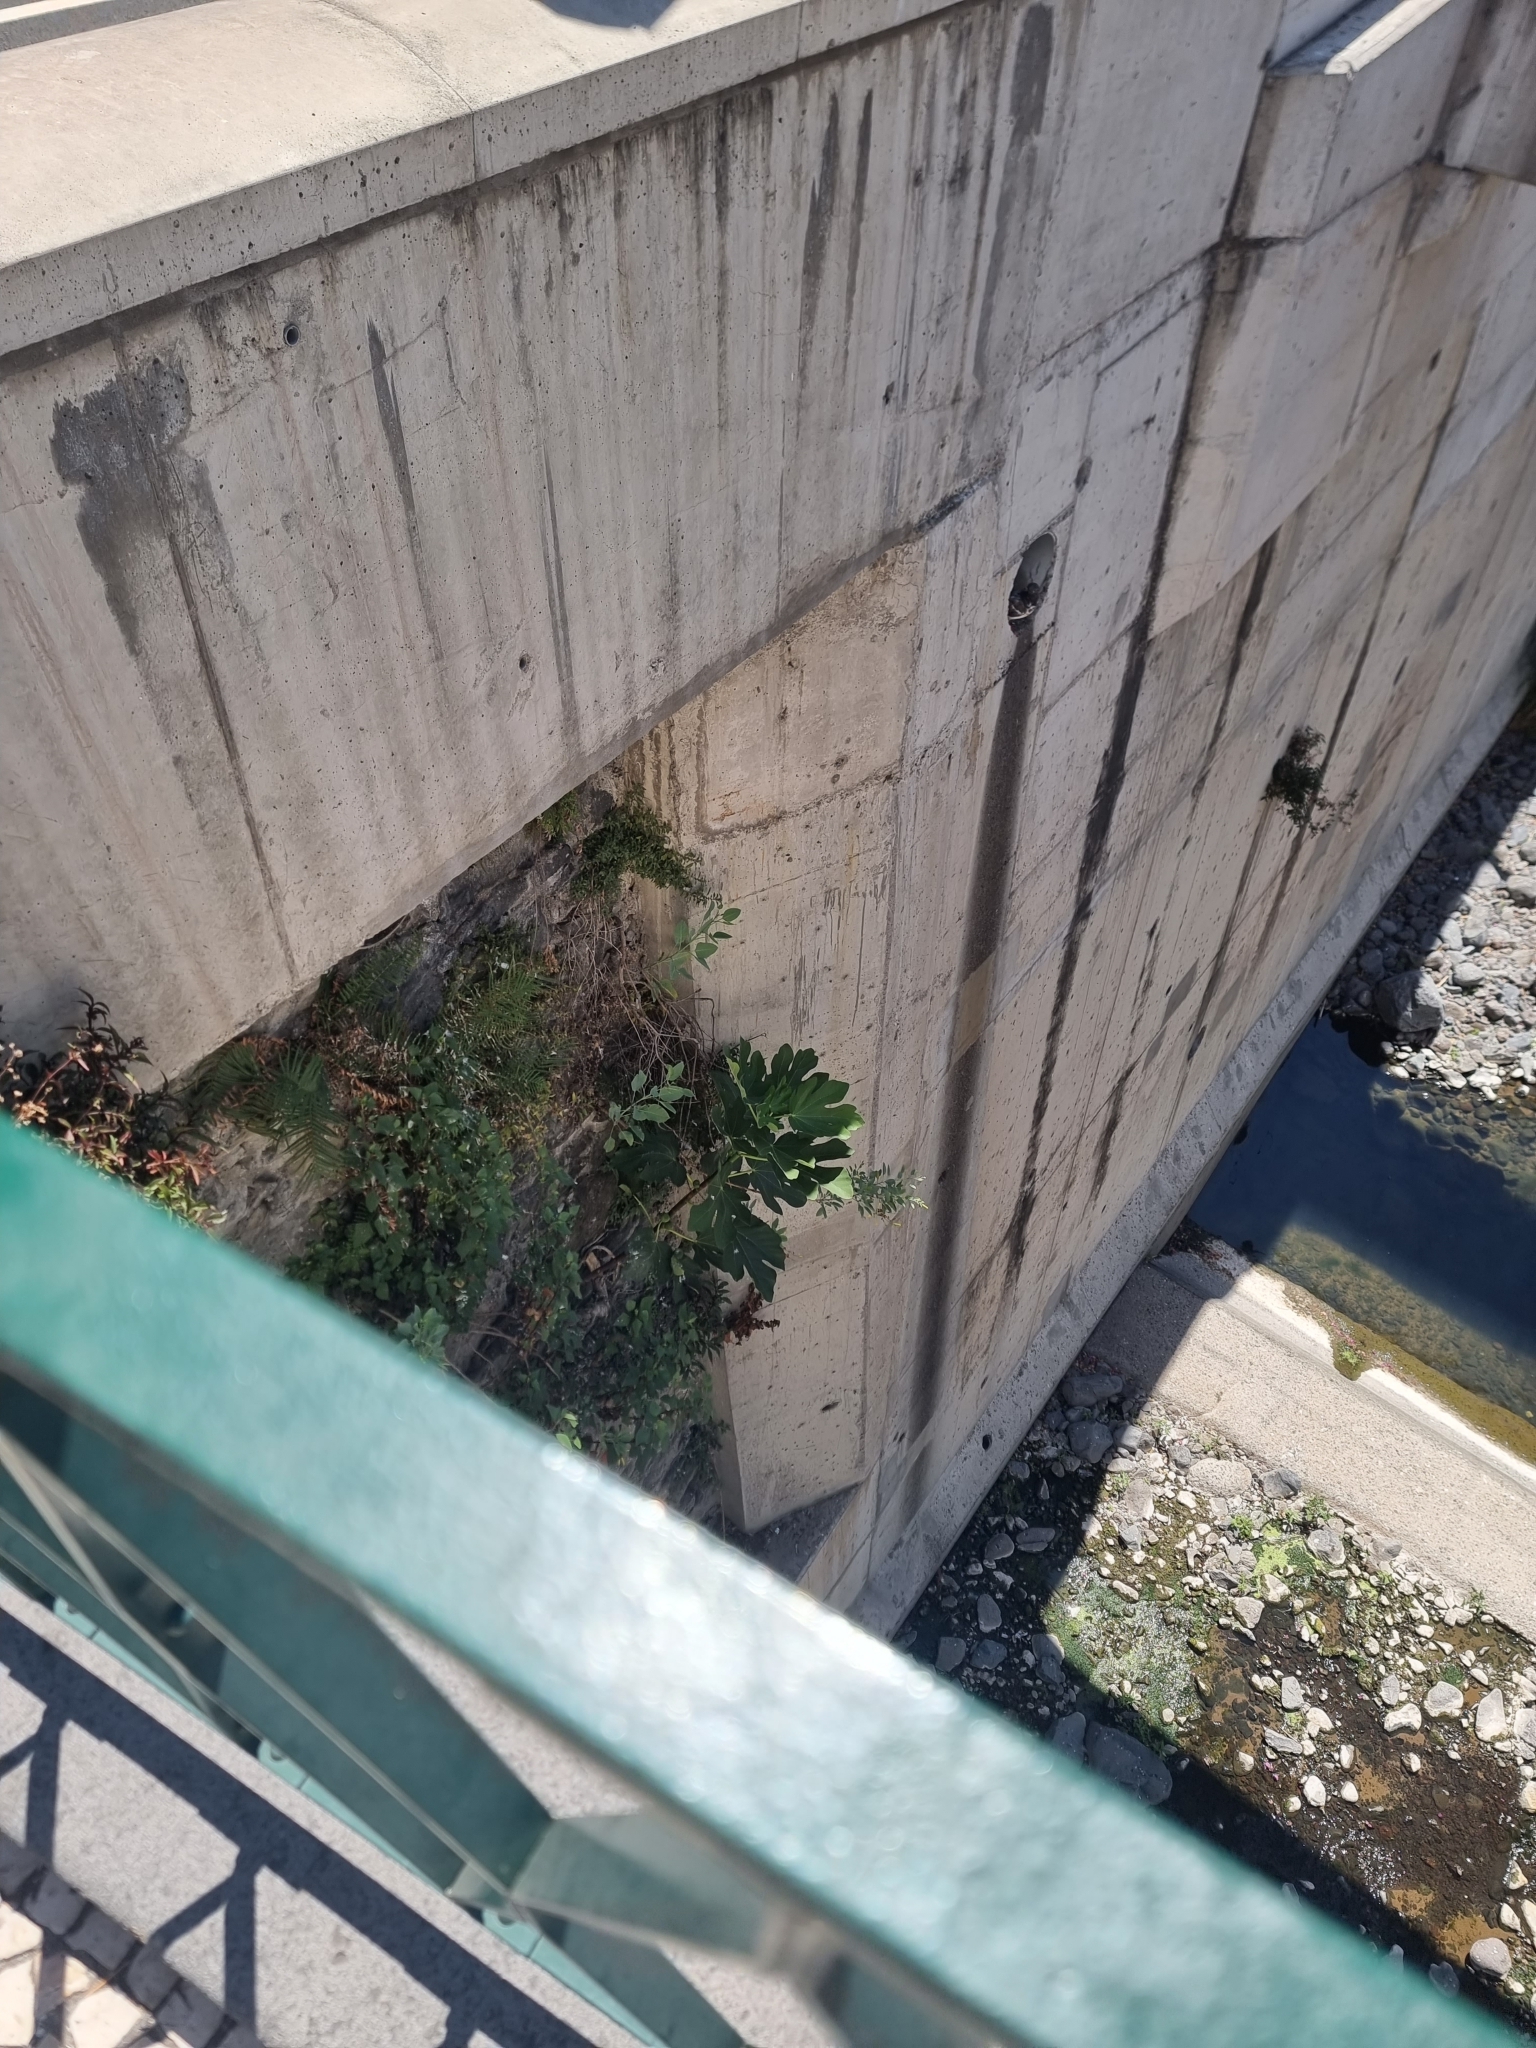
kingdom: Plantae
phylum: Tracheophyta
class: Magnoliopsida
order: Rosales
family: Moraceae
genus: Ficus
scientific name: Ficus carica
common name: Fig
